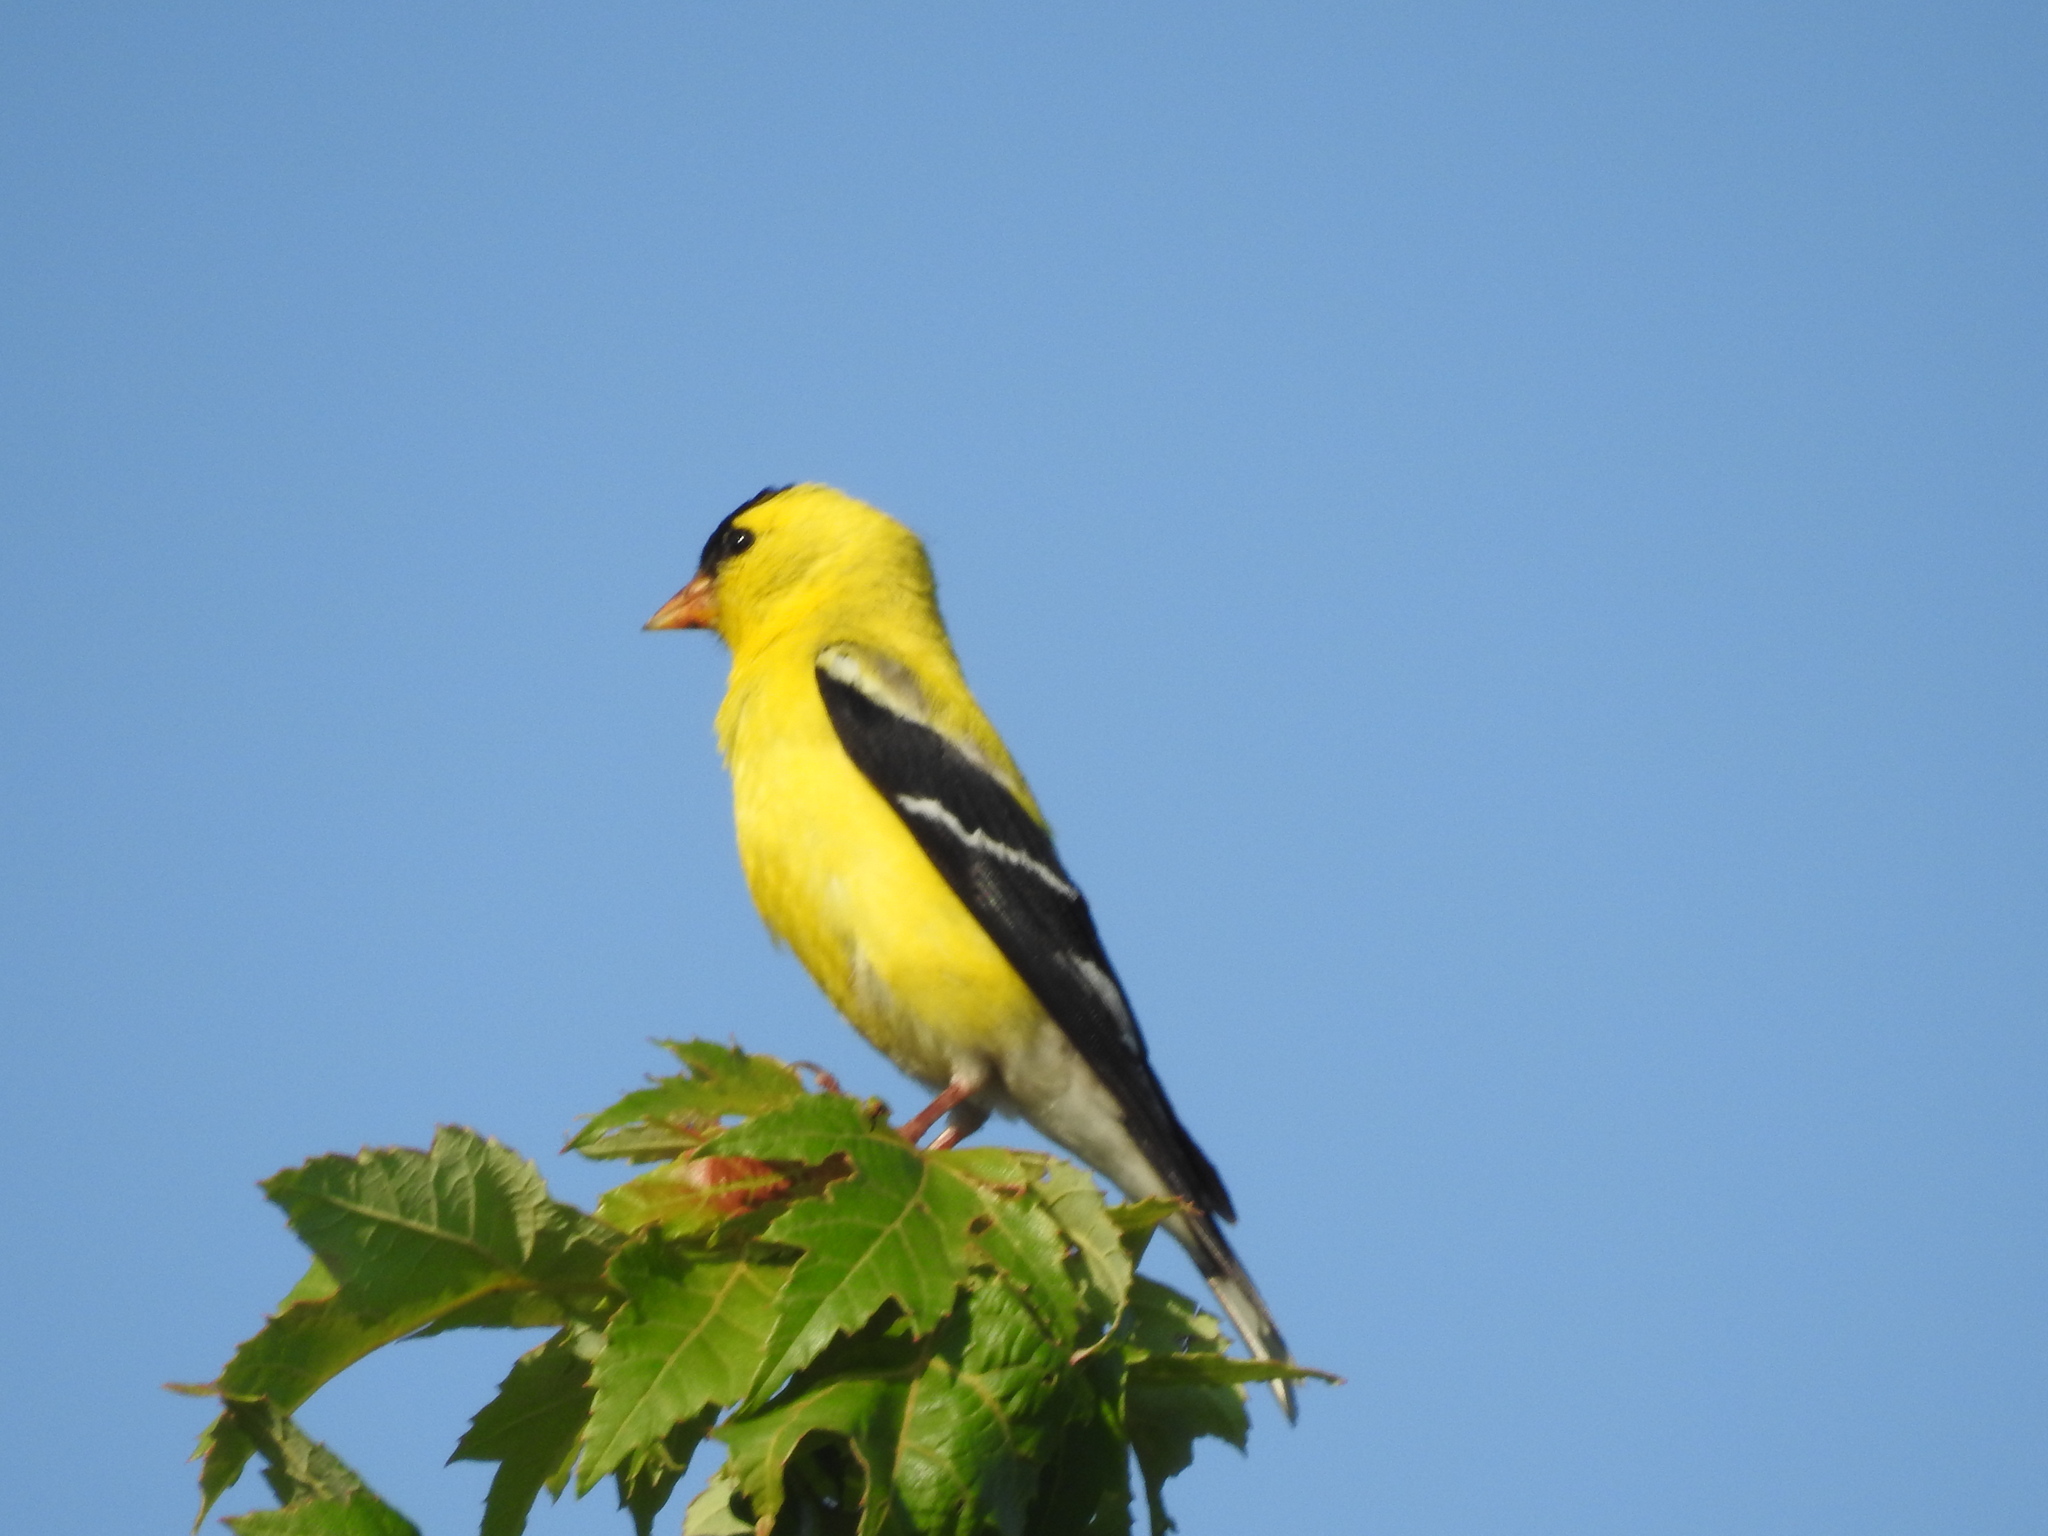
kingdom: Animalia
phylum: Chordata
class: Aves
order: Passeriformes
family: Fringillidae
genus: Spinus
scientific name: Spinus tristis
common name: American goldfinch
